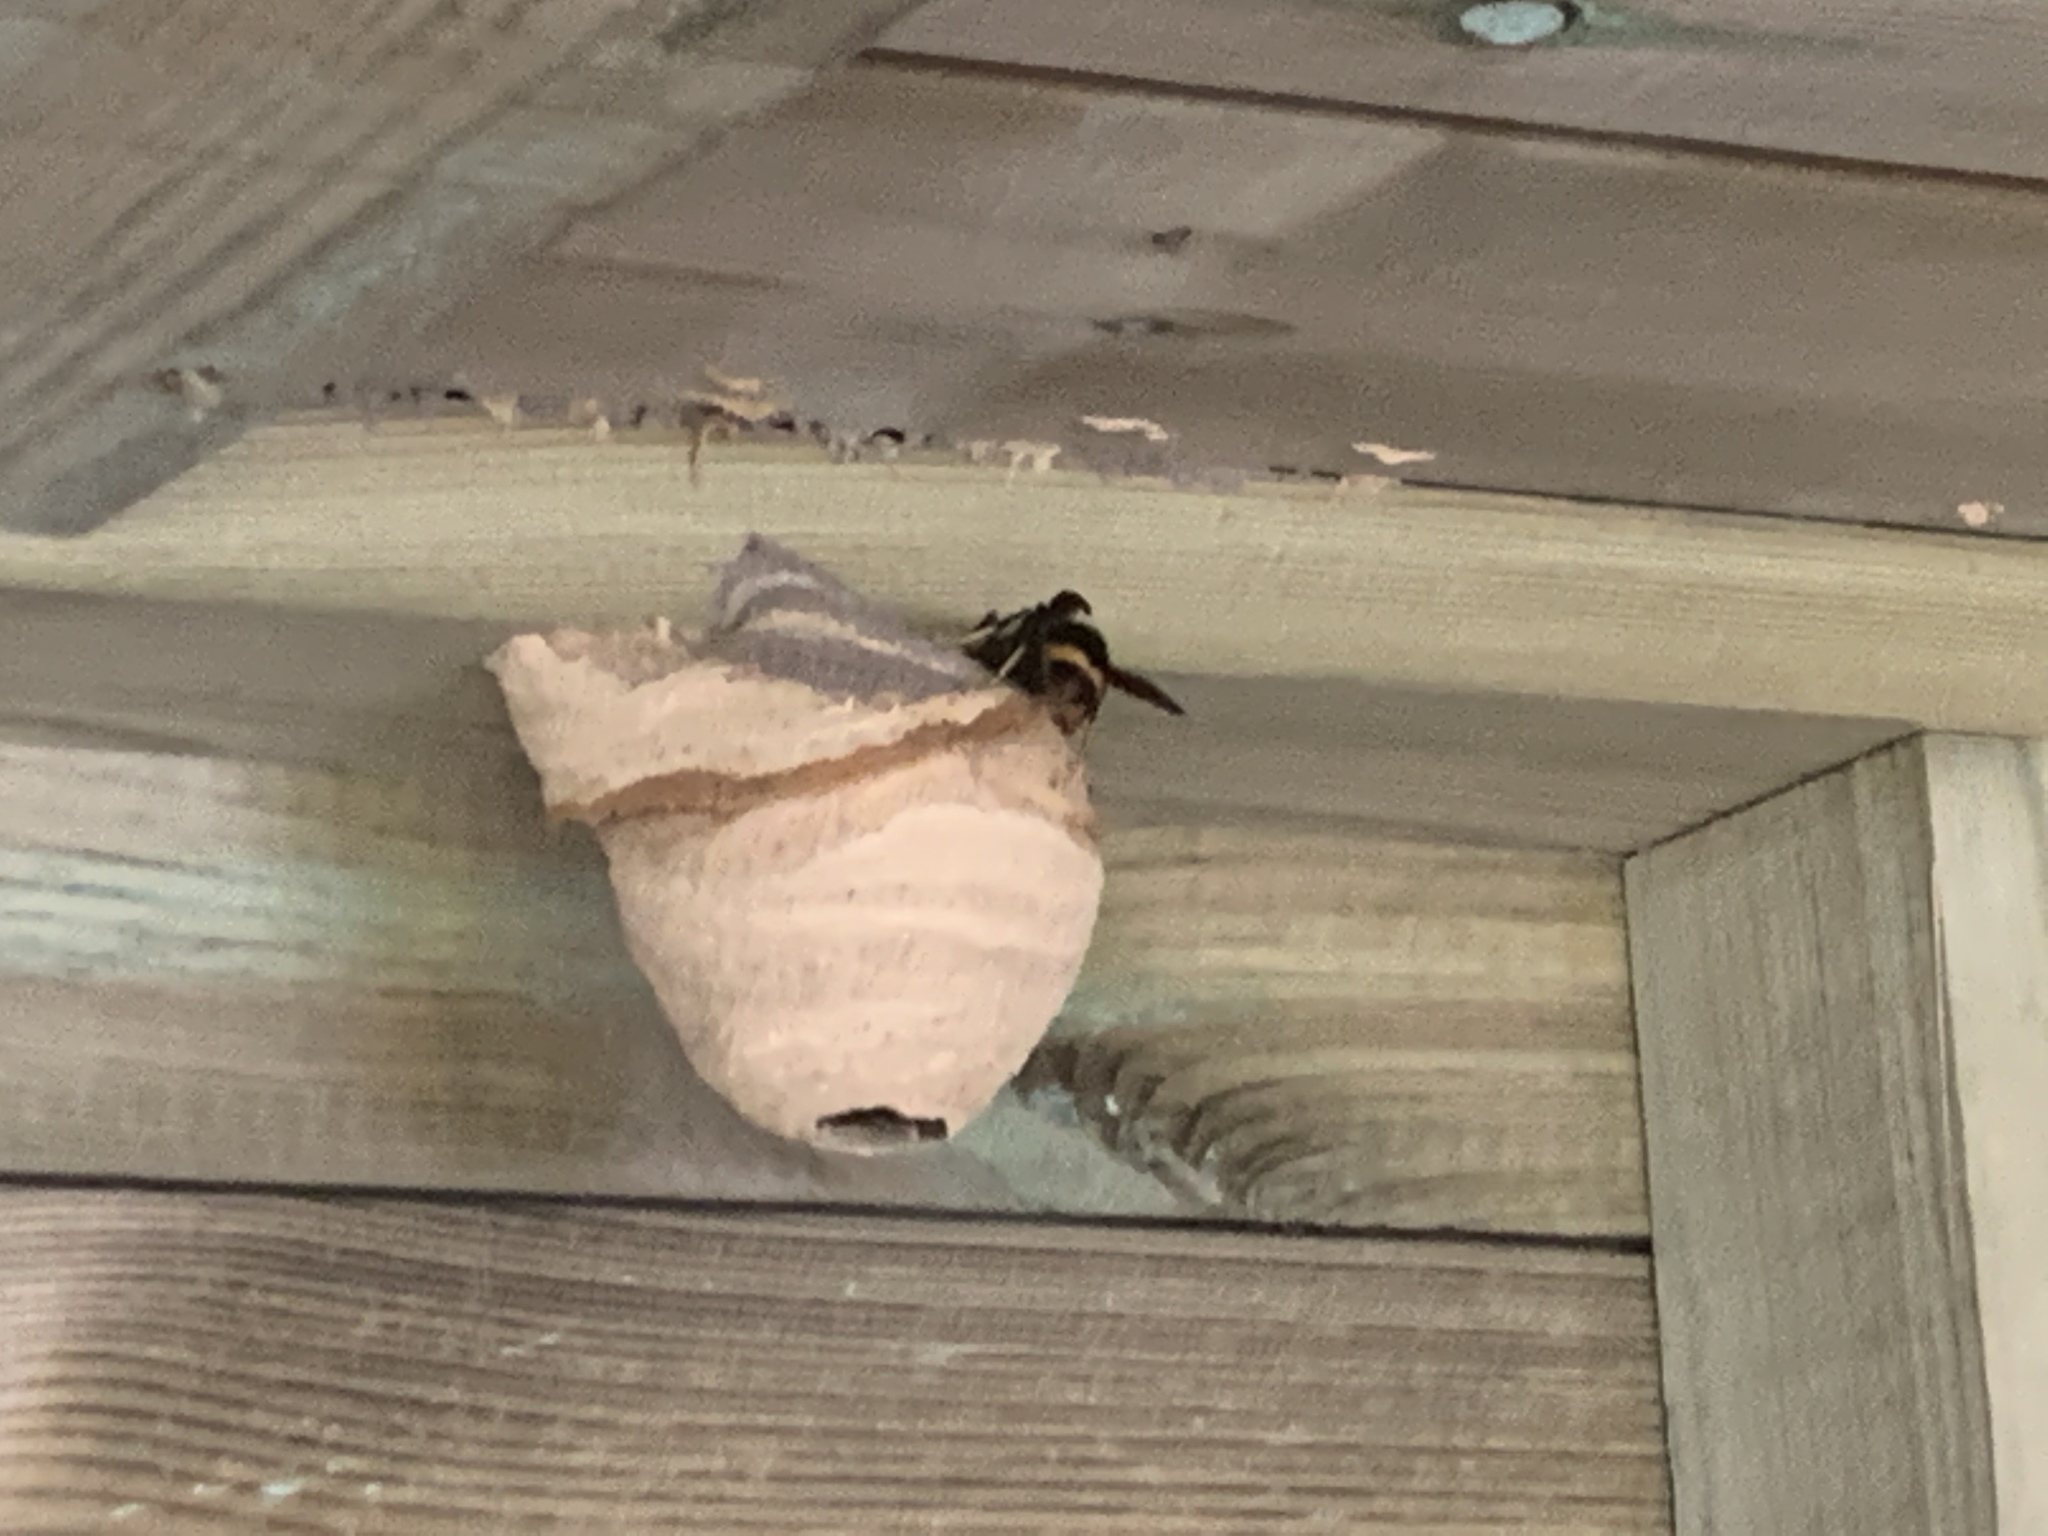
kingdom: Animalia
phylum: Arthropoda
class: Insecta
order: Hymenoptera
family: Vespidae
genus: Vespa
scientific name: Vespa velutina
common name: Asian hornet
